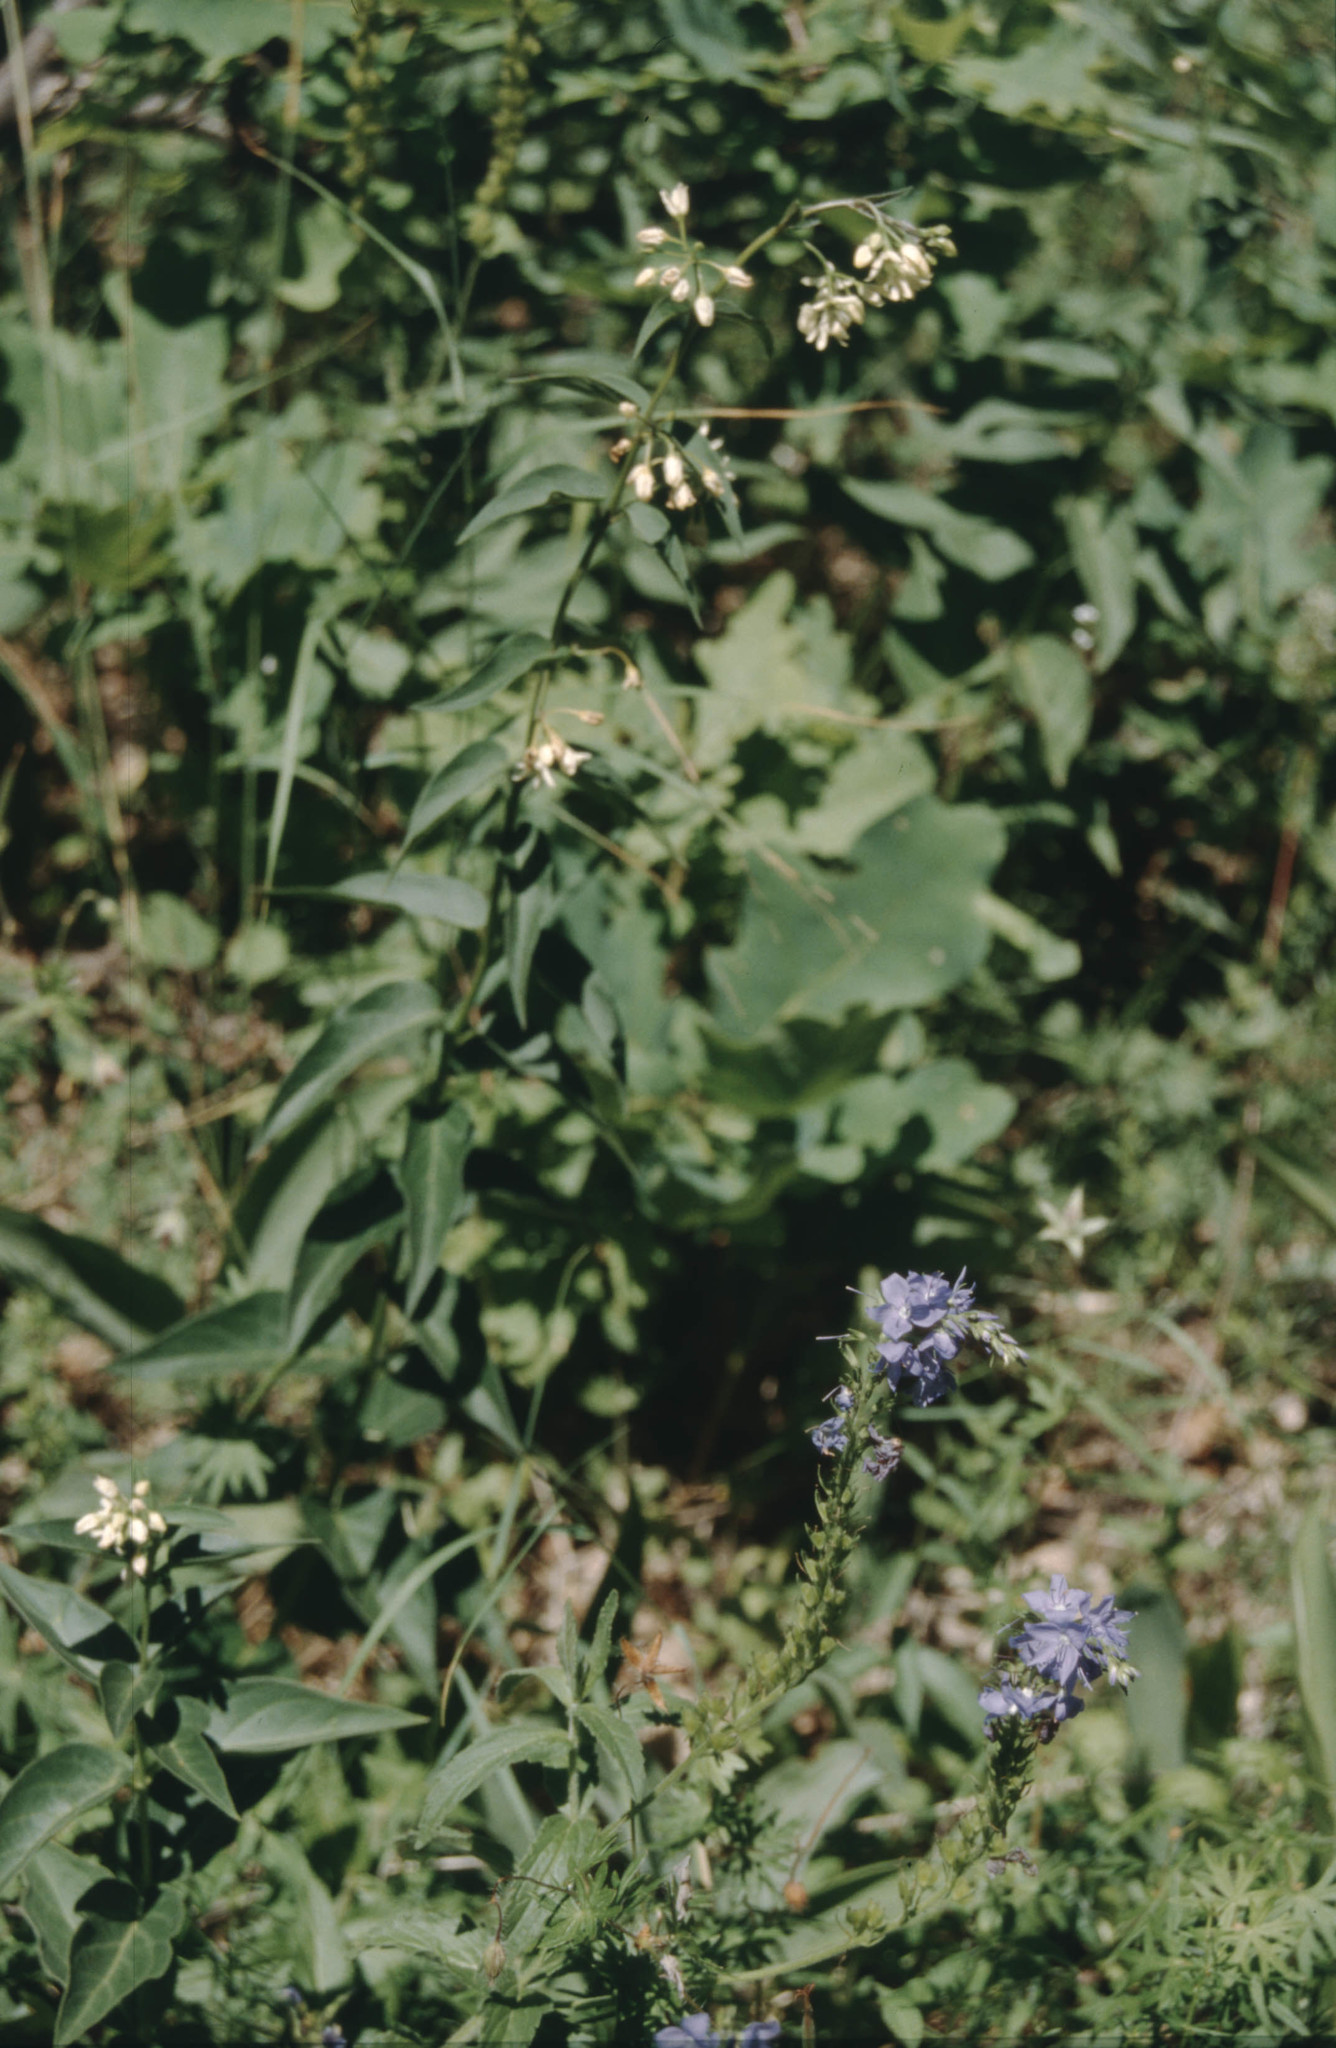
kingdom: Plantae
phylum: Tracheophyta
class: Magnoliopsida
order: Gentianales
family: Apocynaceae
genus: Vincetoxicum
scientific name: Vincetoxicum hirundinaria
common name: White swallowwort
